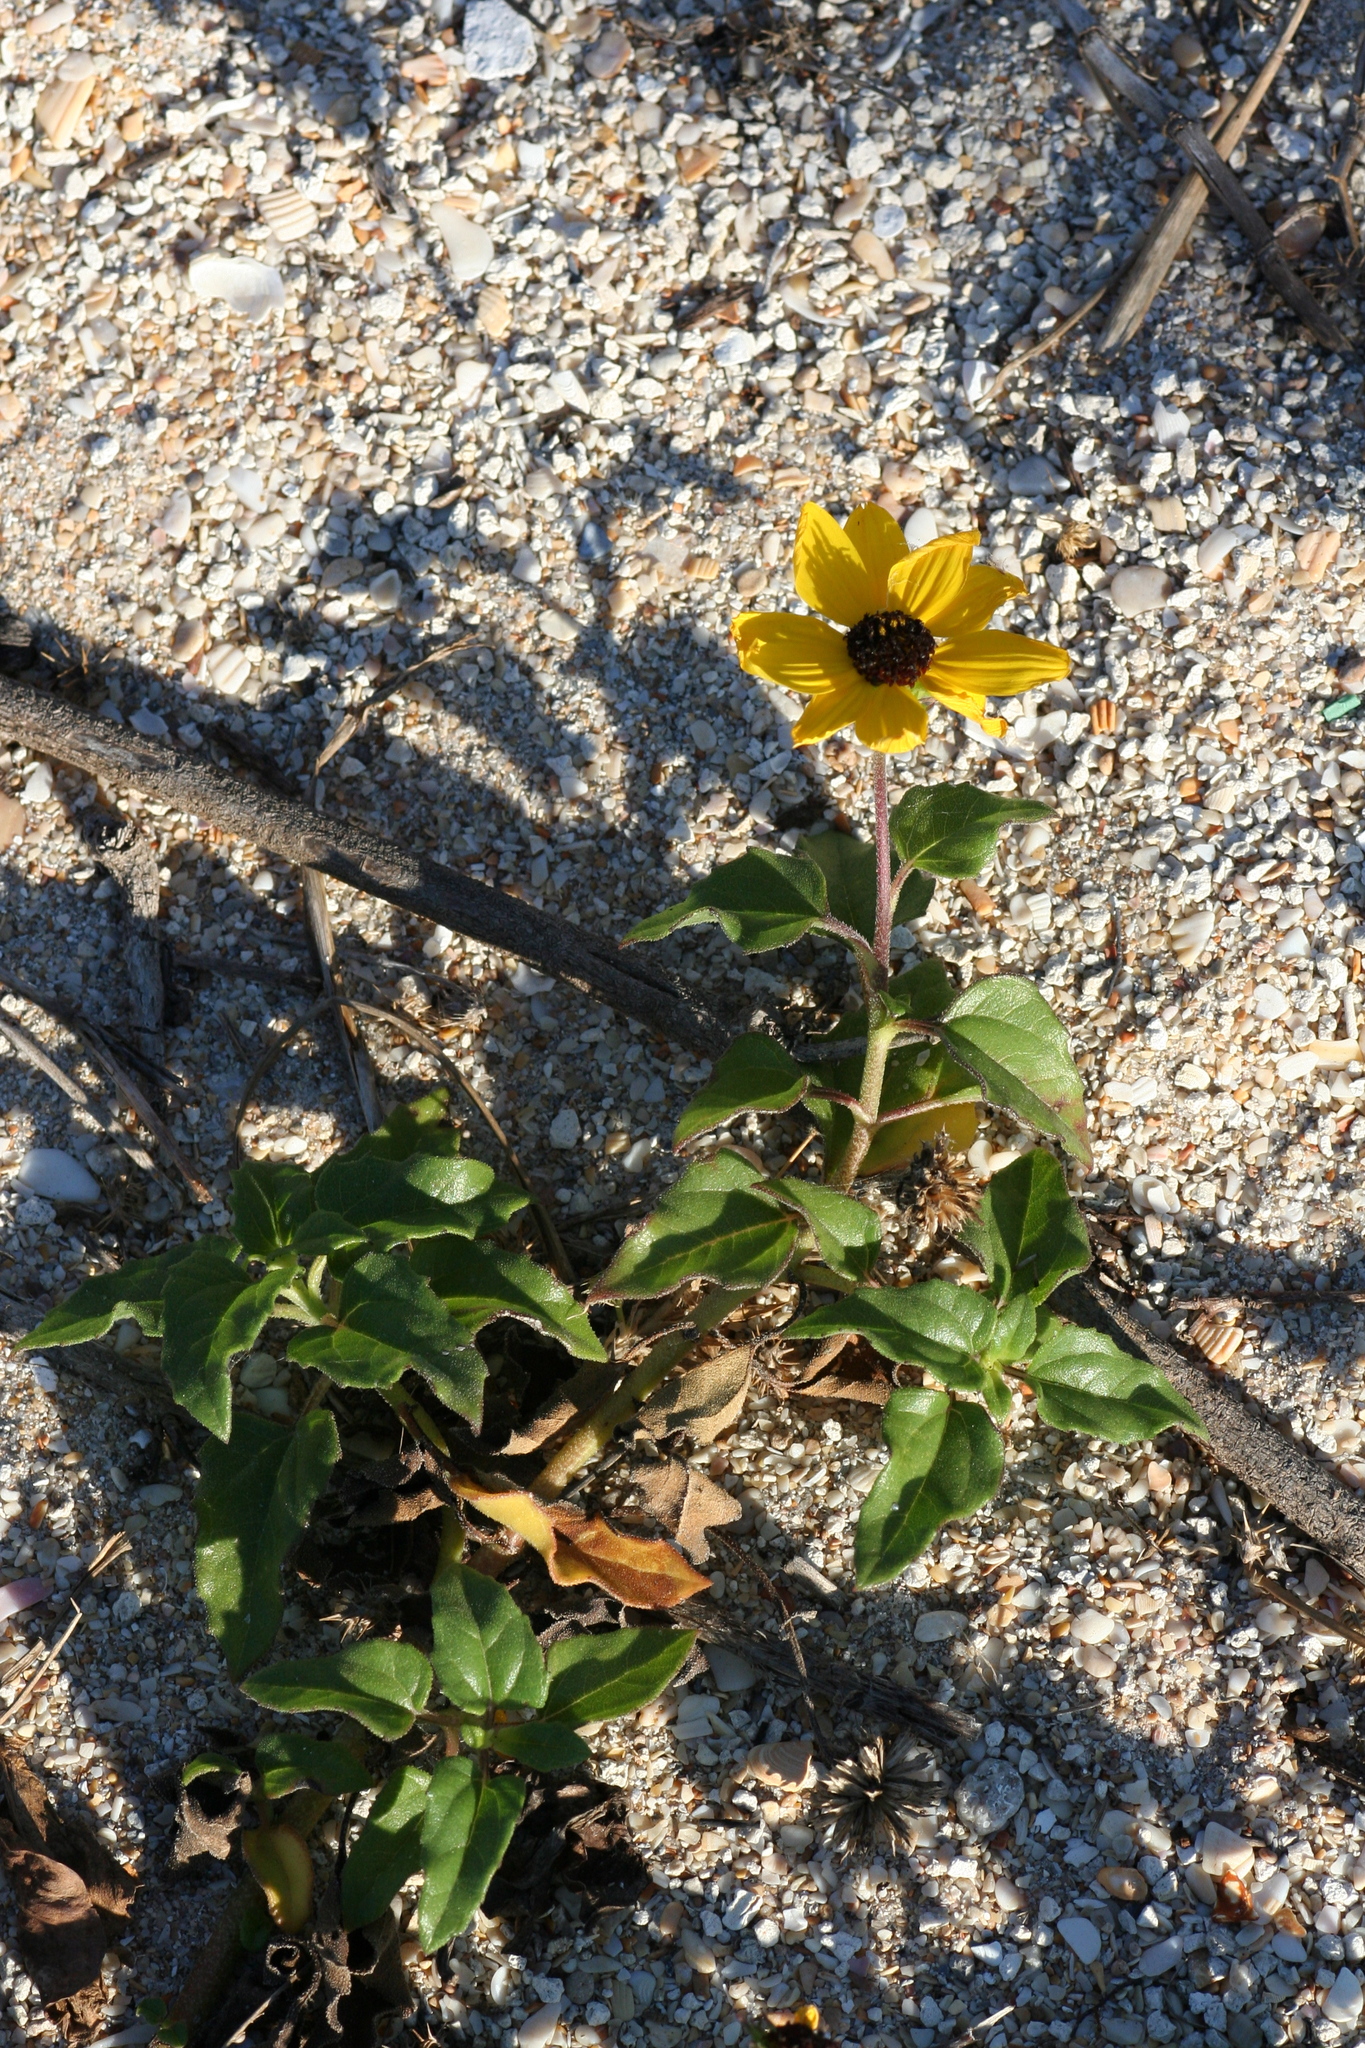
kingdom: Plantae
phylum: Tracheophyta
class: Magnoliopsida
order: Asterales
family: Asteraceae
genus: Helianthus
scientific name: Helianthus debilis
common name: Weak sunflower
